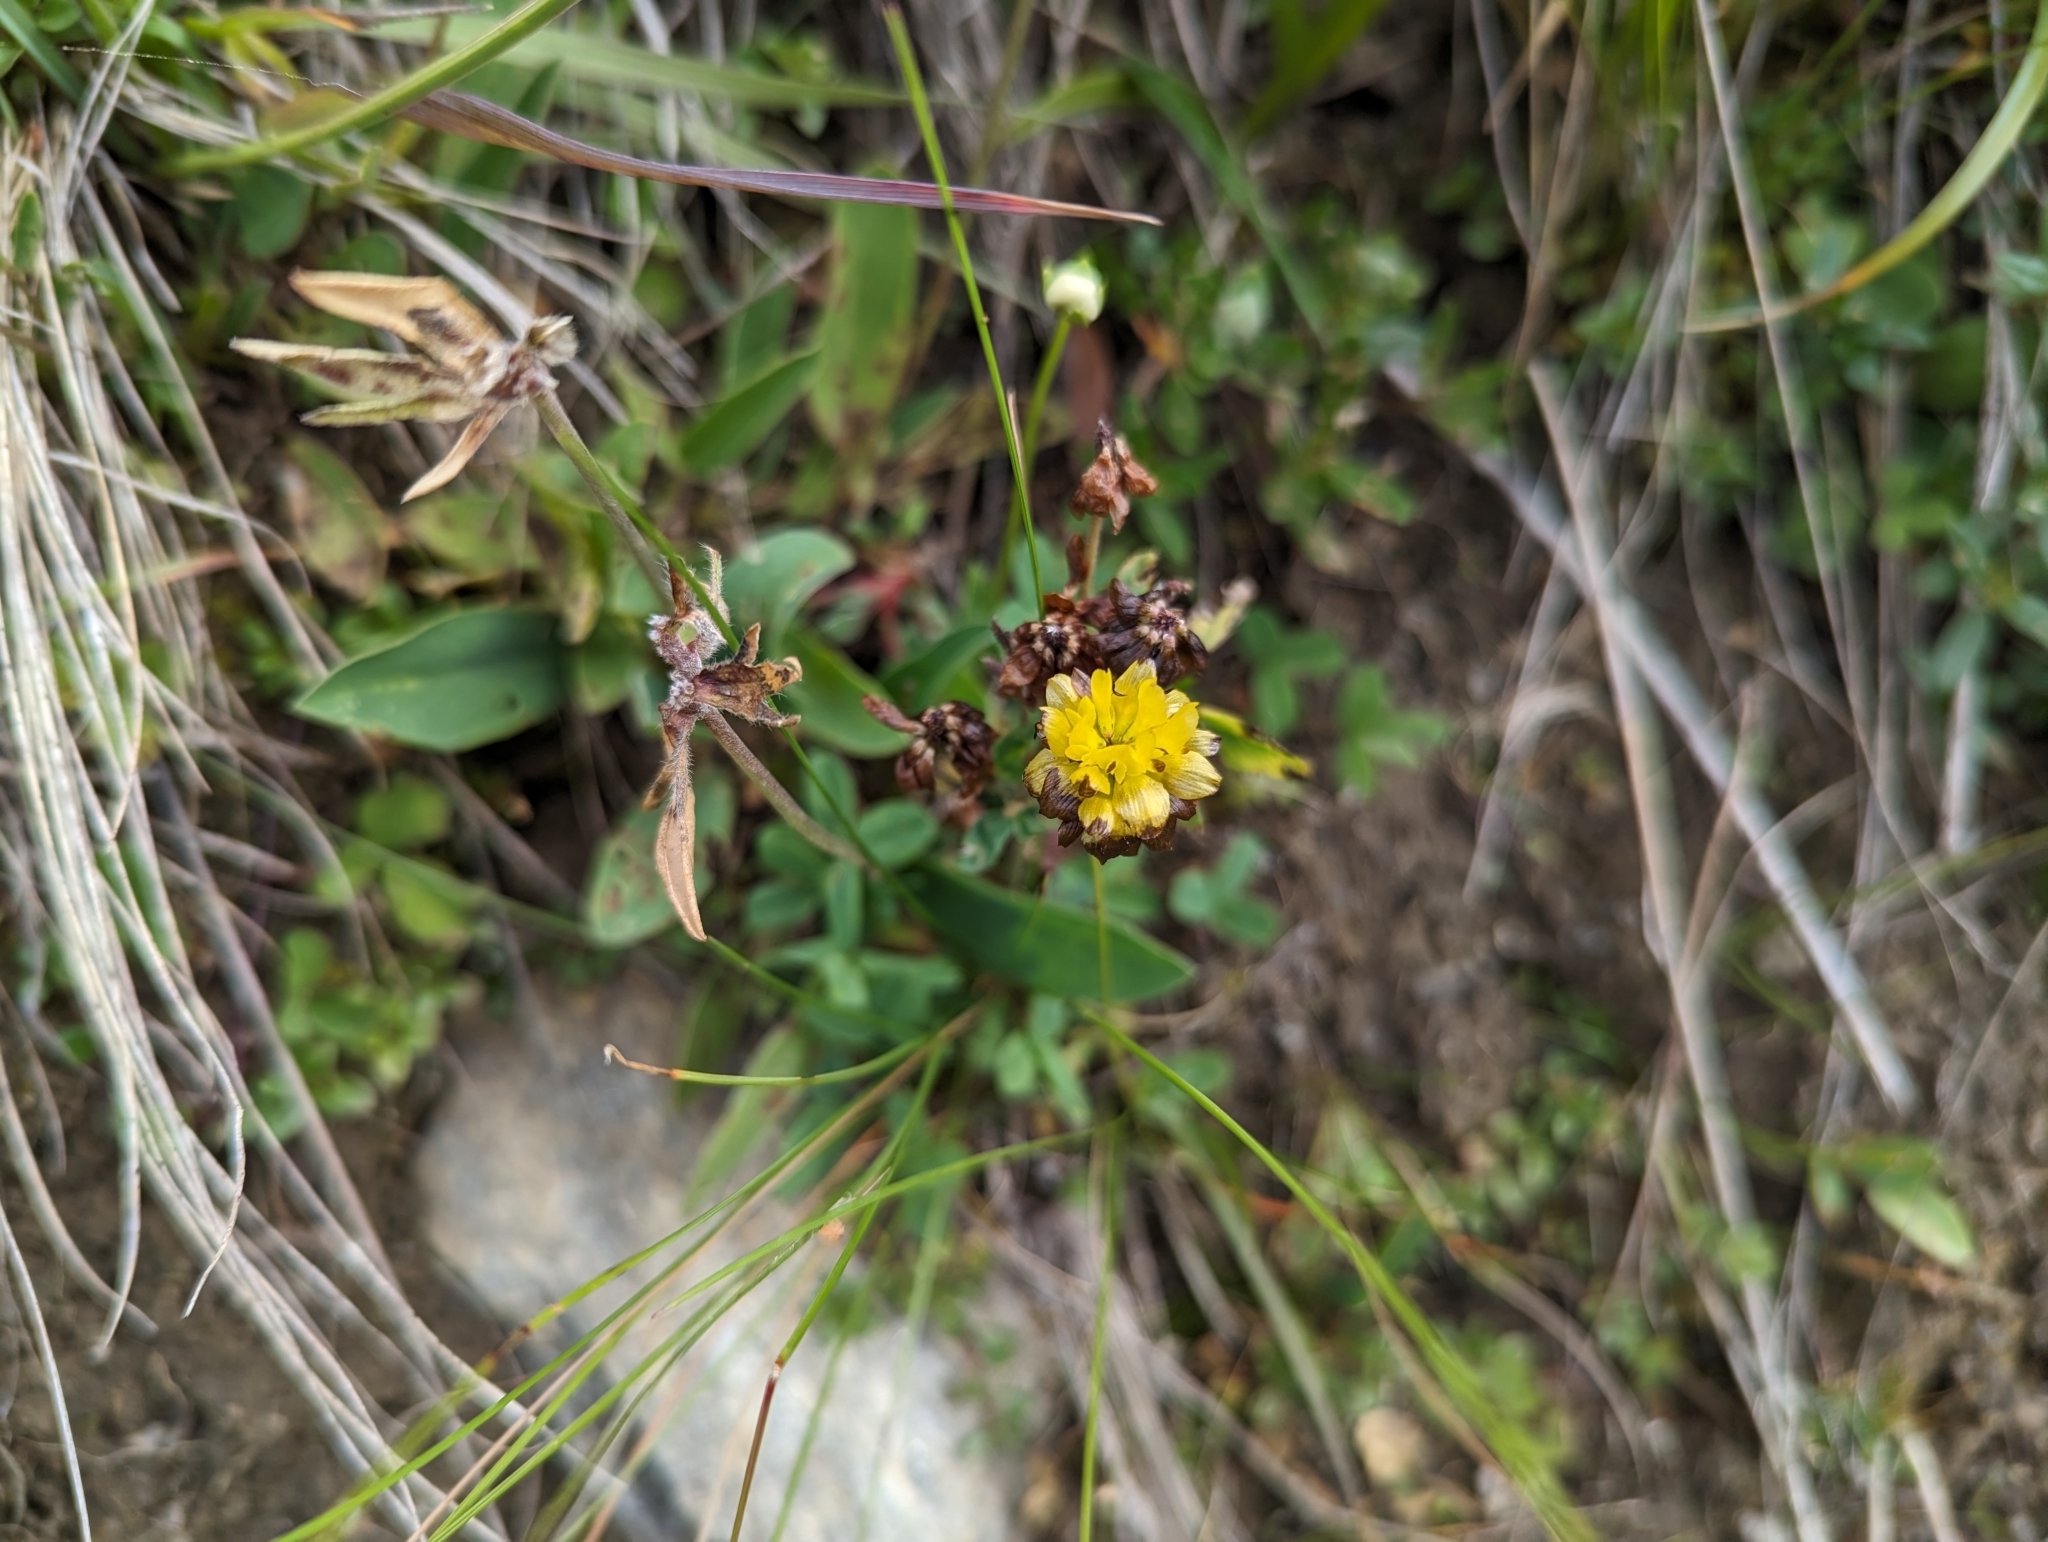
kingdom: Plantae
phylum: Tracheophyta
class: Magnoliopsida
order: Fabales
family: Fabaceae
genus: Trifolium
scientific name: Trifolium badium
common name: Brown clover
